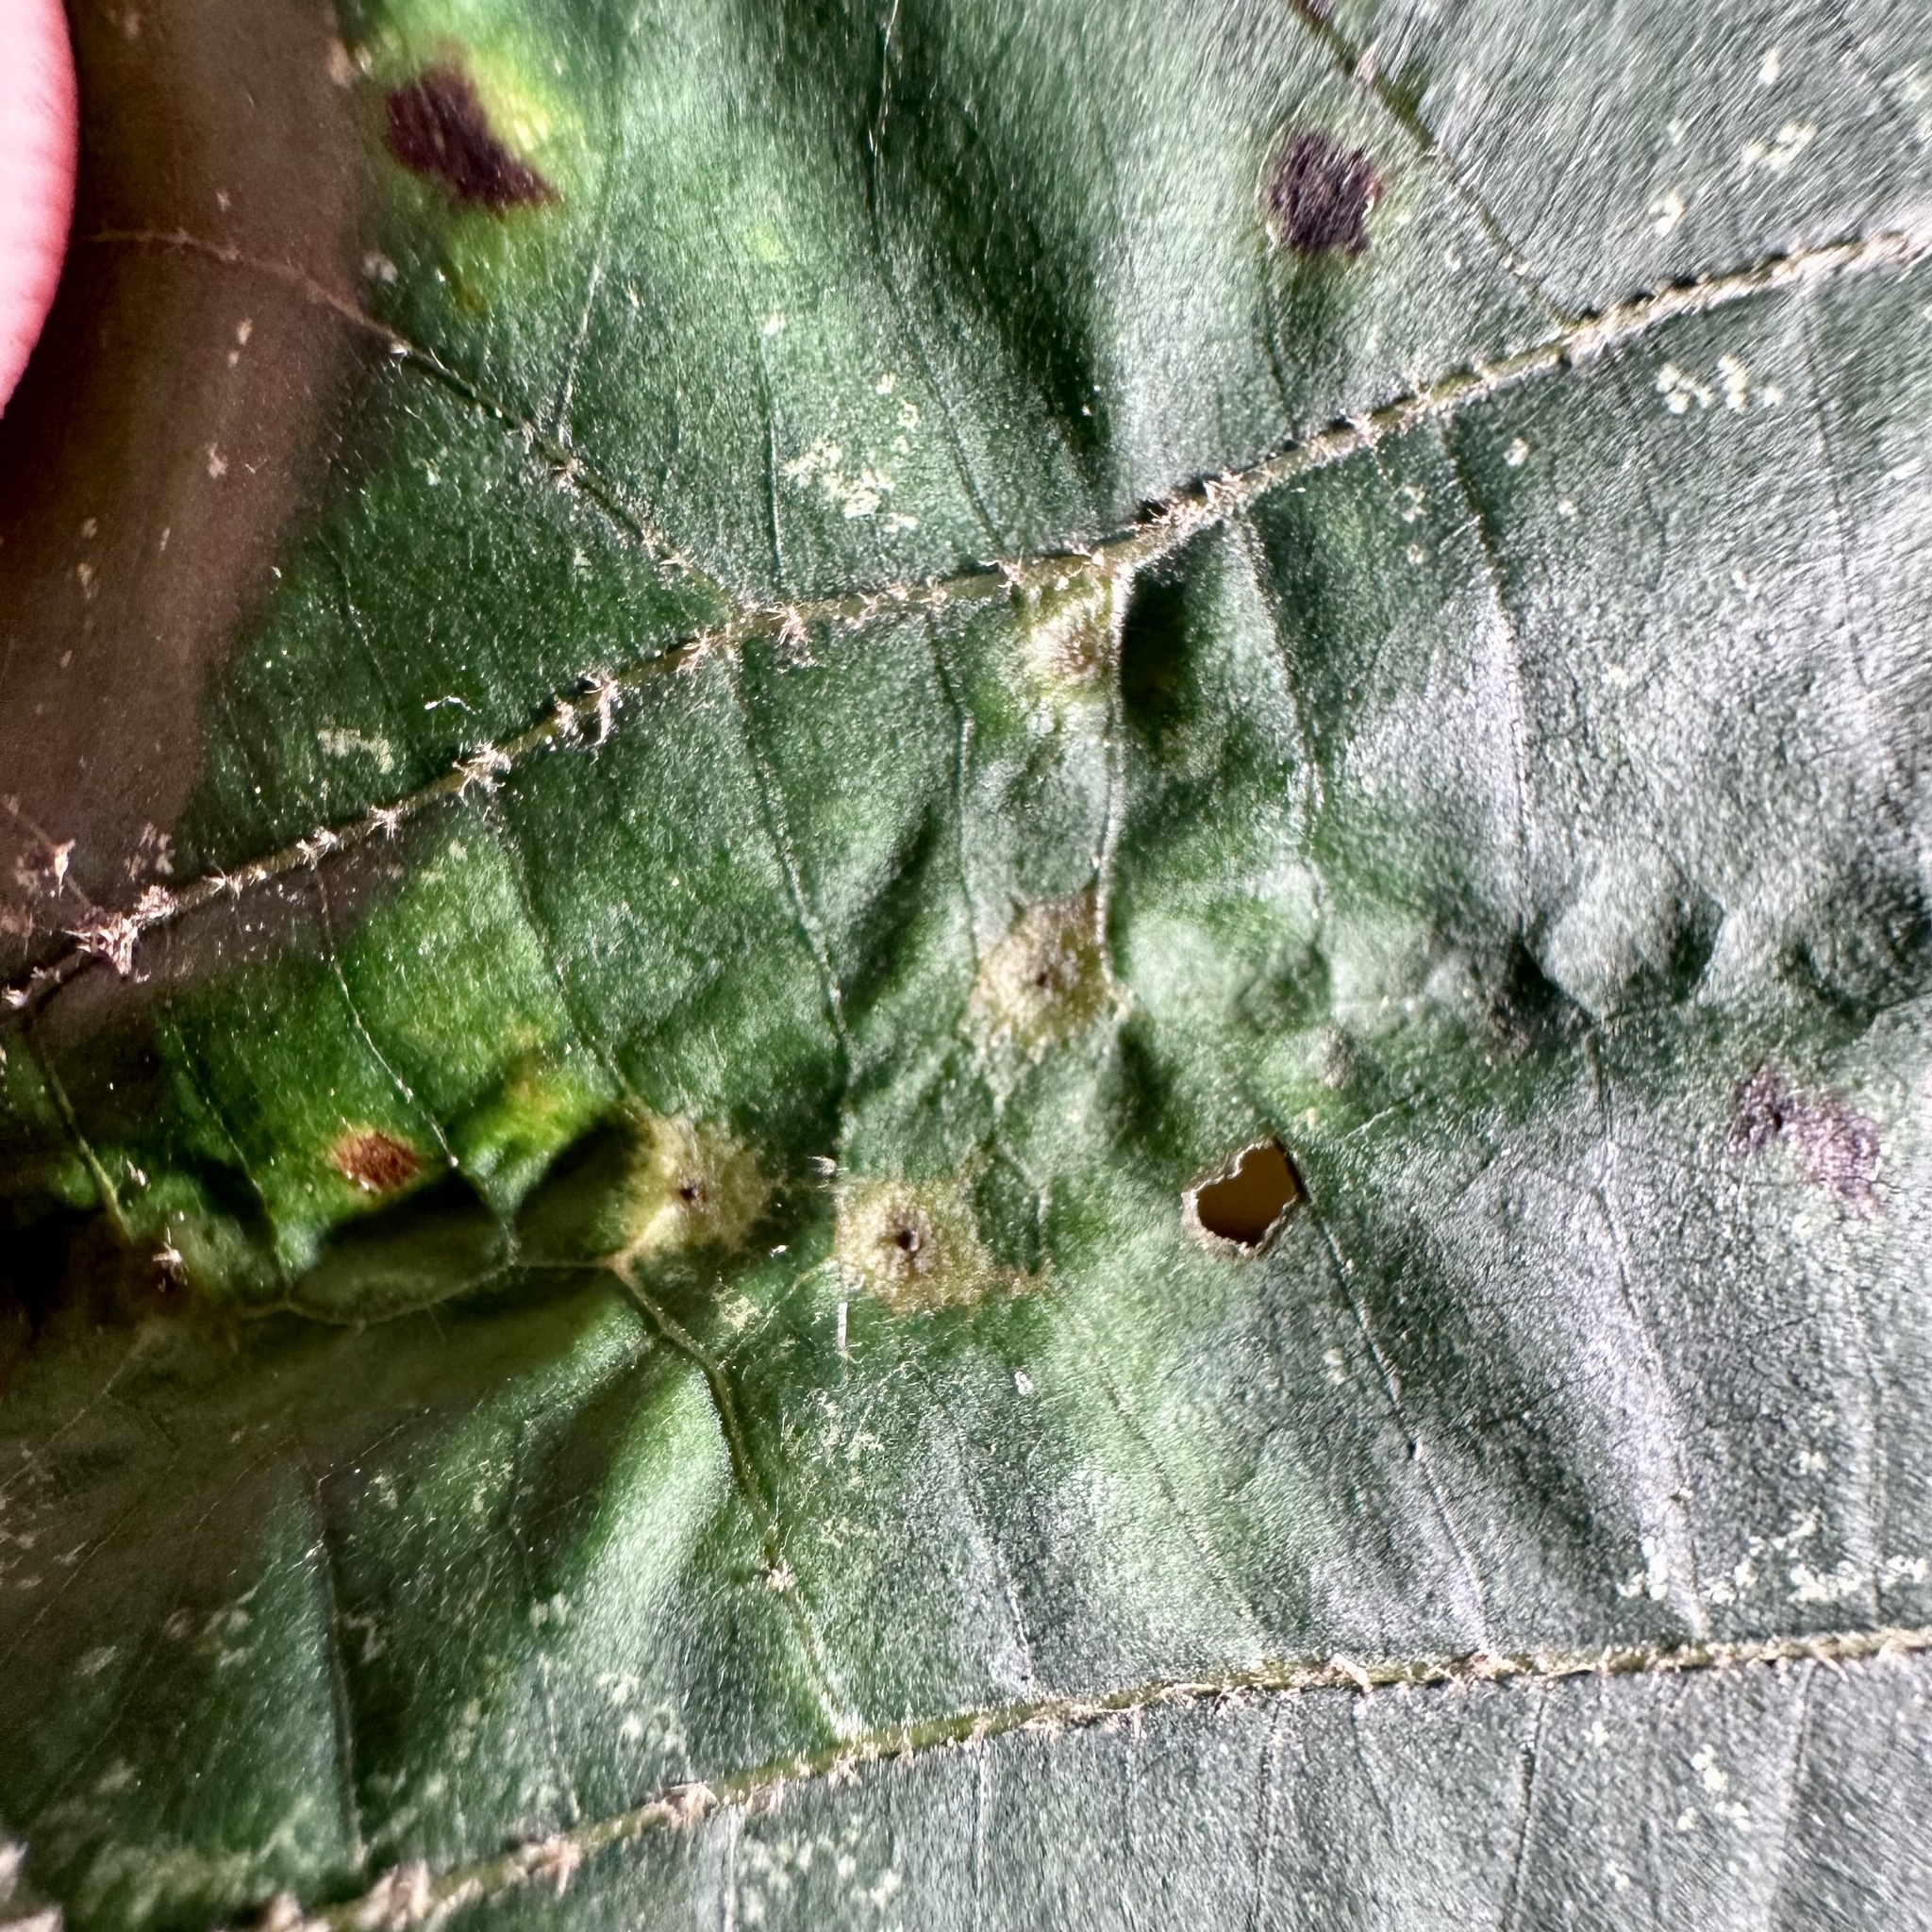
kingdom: Animalia
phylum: Arthropoda
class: Insecta
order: Diptera
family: Cecidomyiidae
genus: Caryomyia
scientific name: Caryomyia tuberculata
